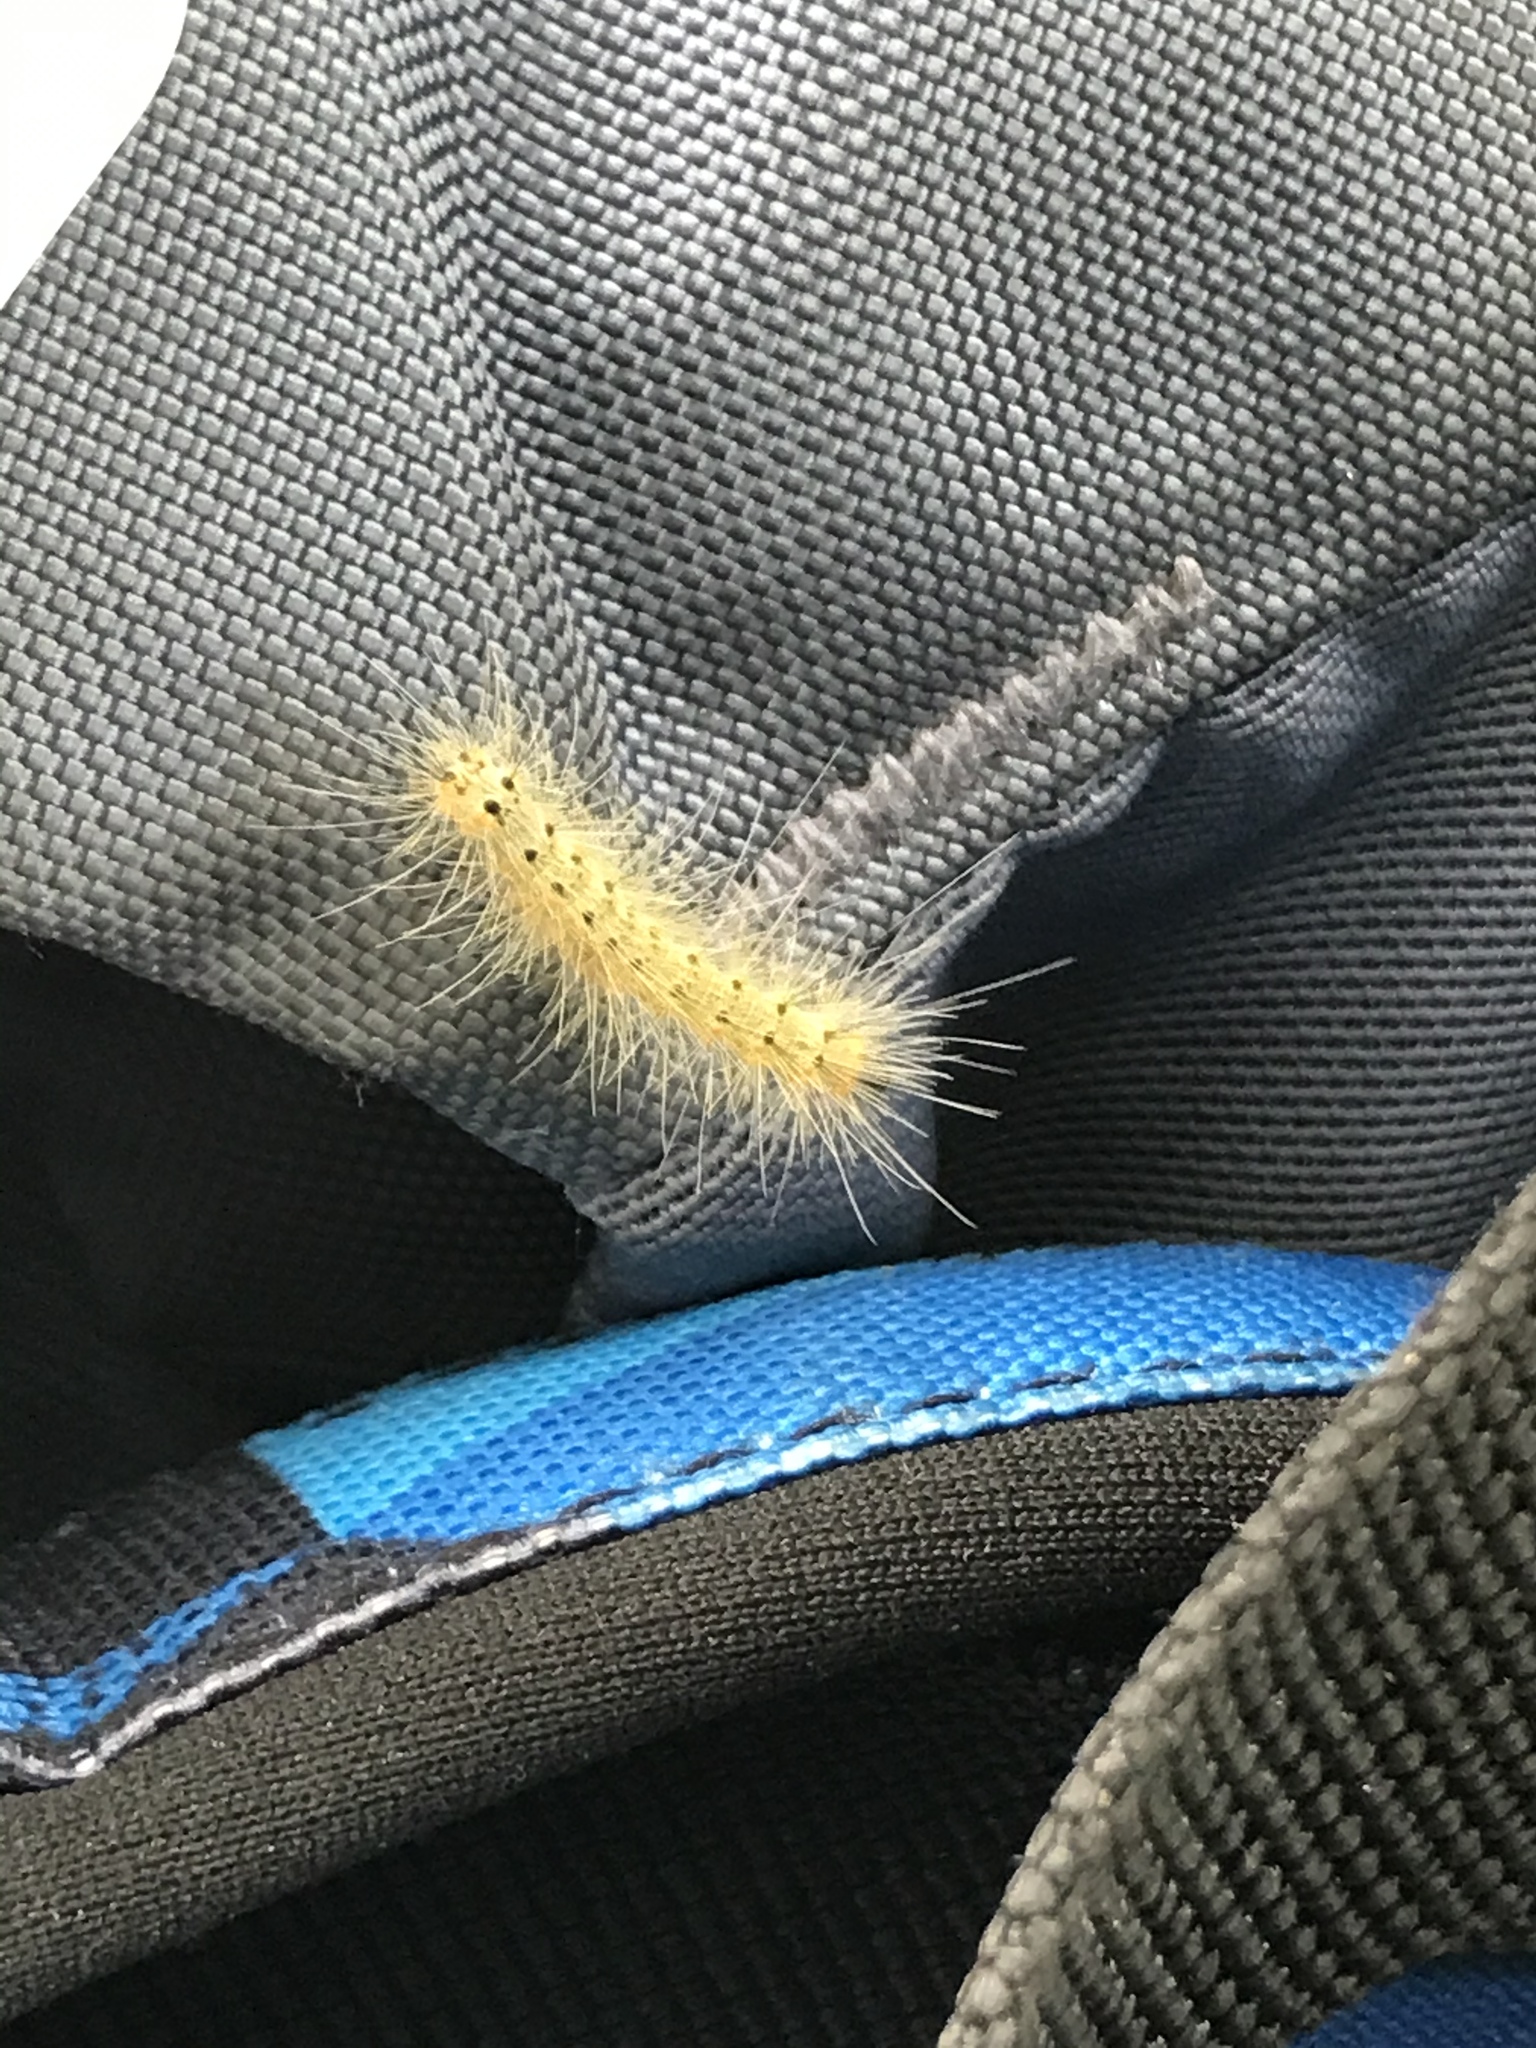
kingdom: Animalia
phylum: Arthropoda
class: Insecta
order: Lepidoptera
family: Erebidae
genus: Hyphantria
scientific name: Hyphantria cunea
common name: American white moth
